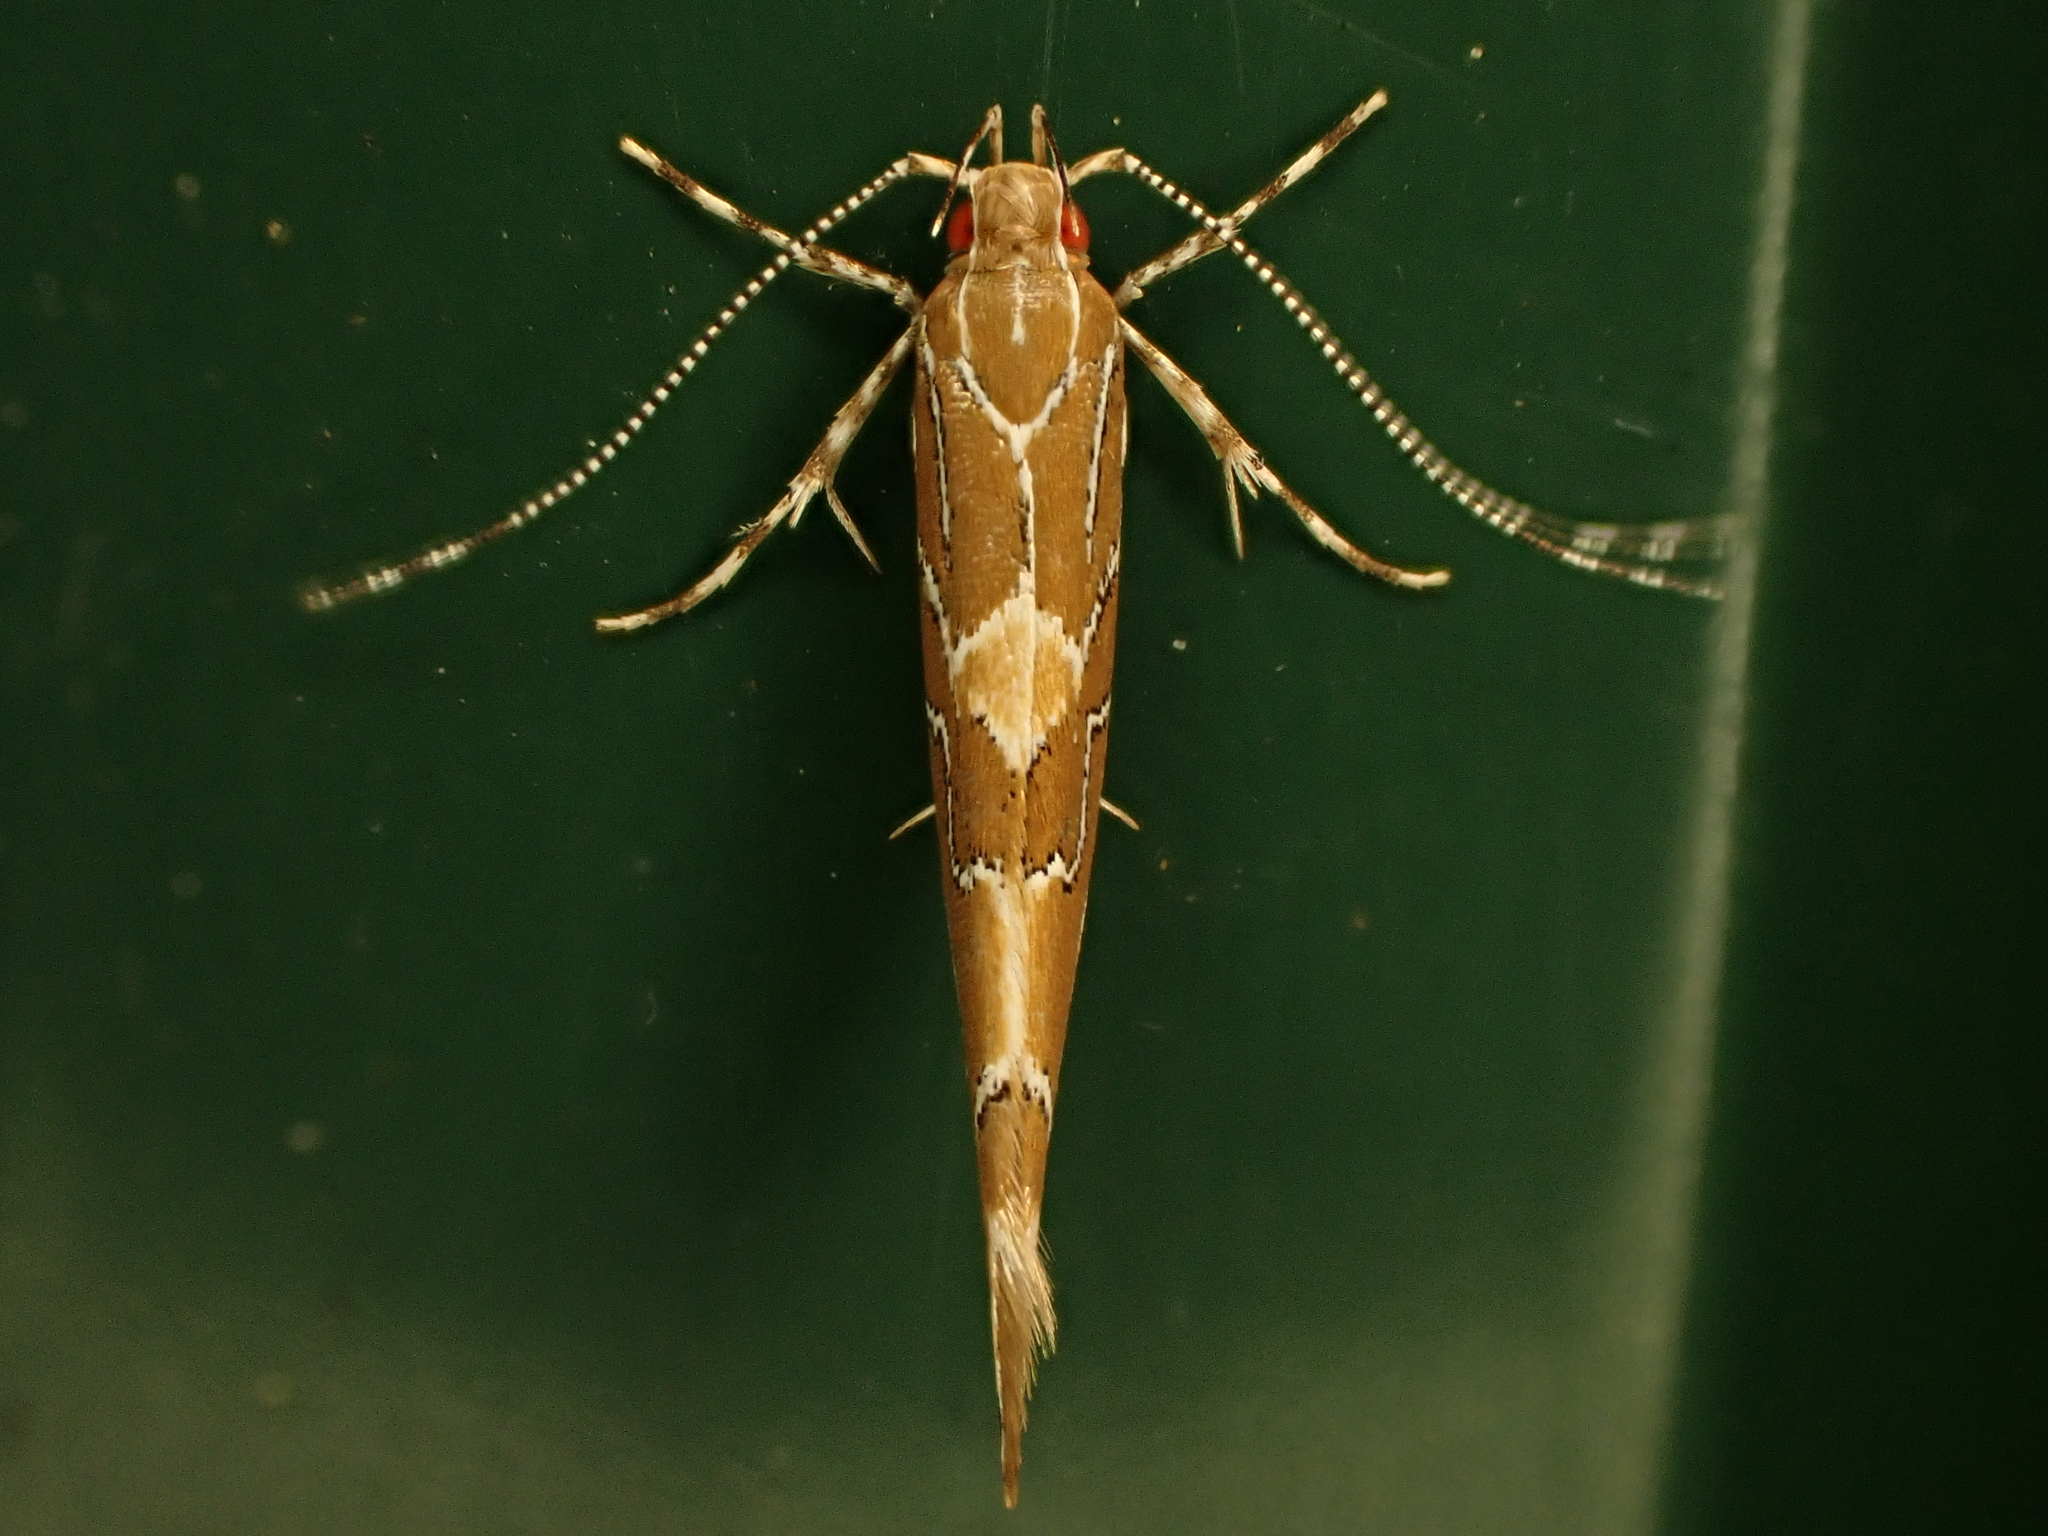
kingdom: Animalia
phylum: Arthropoda
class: Insecta
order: Lepidoptera
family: Cosmopterigidae
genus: Pyroderces
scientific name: Pyroderces apparitella
